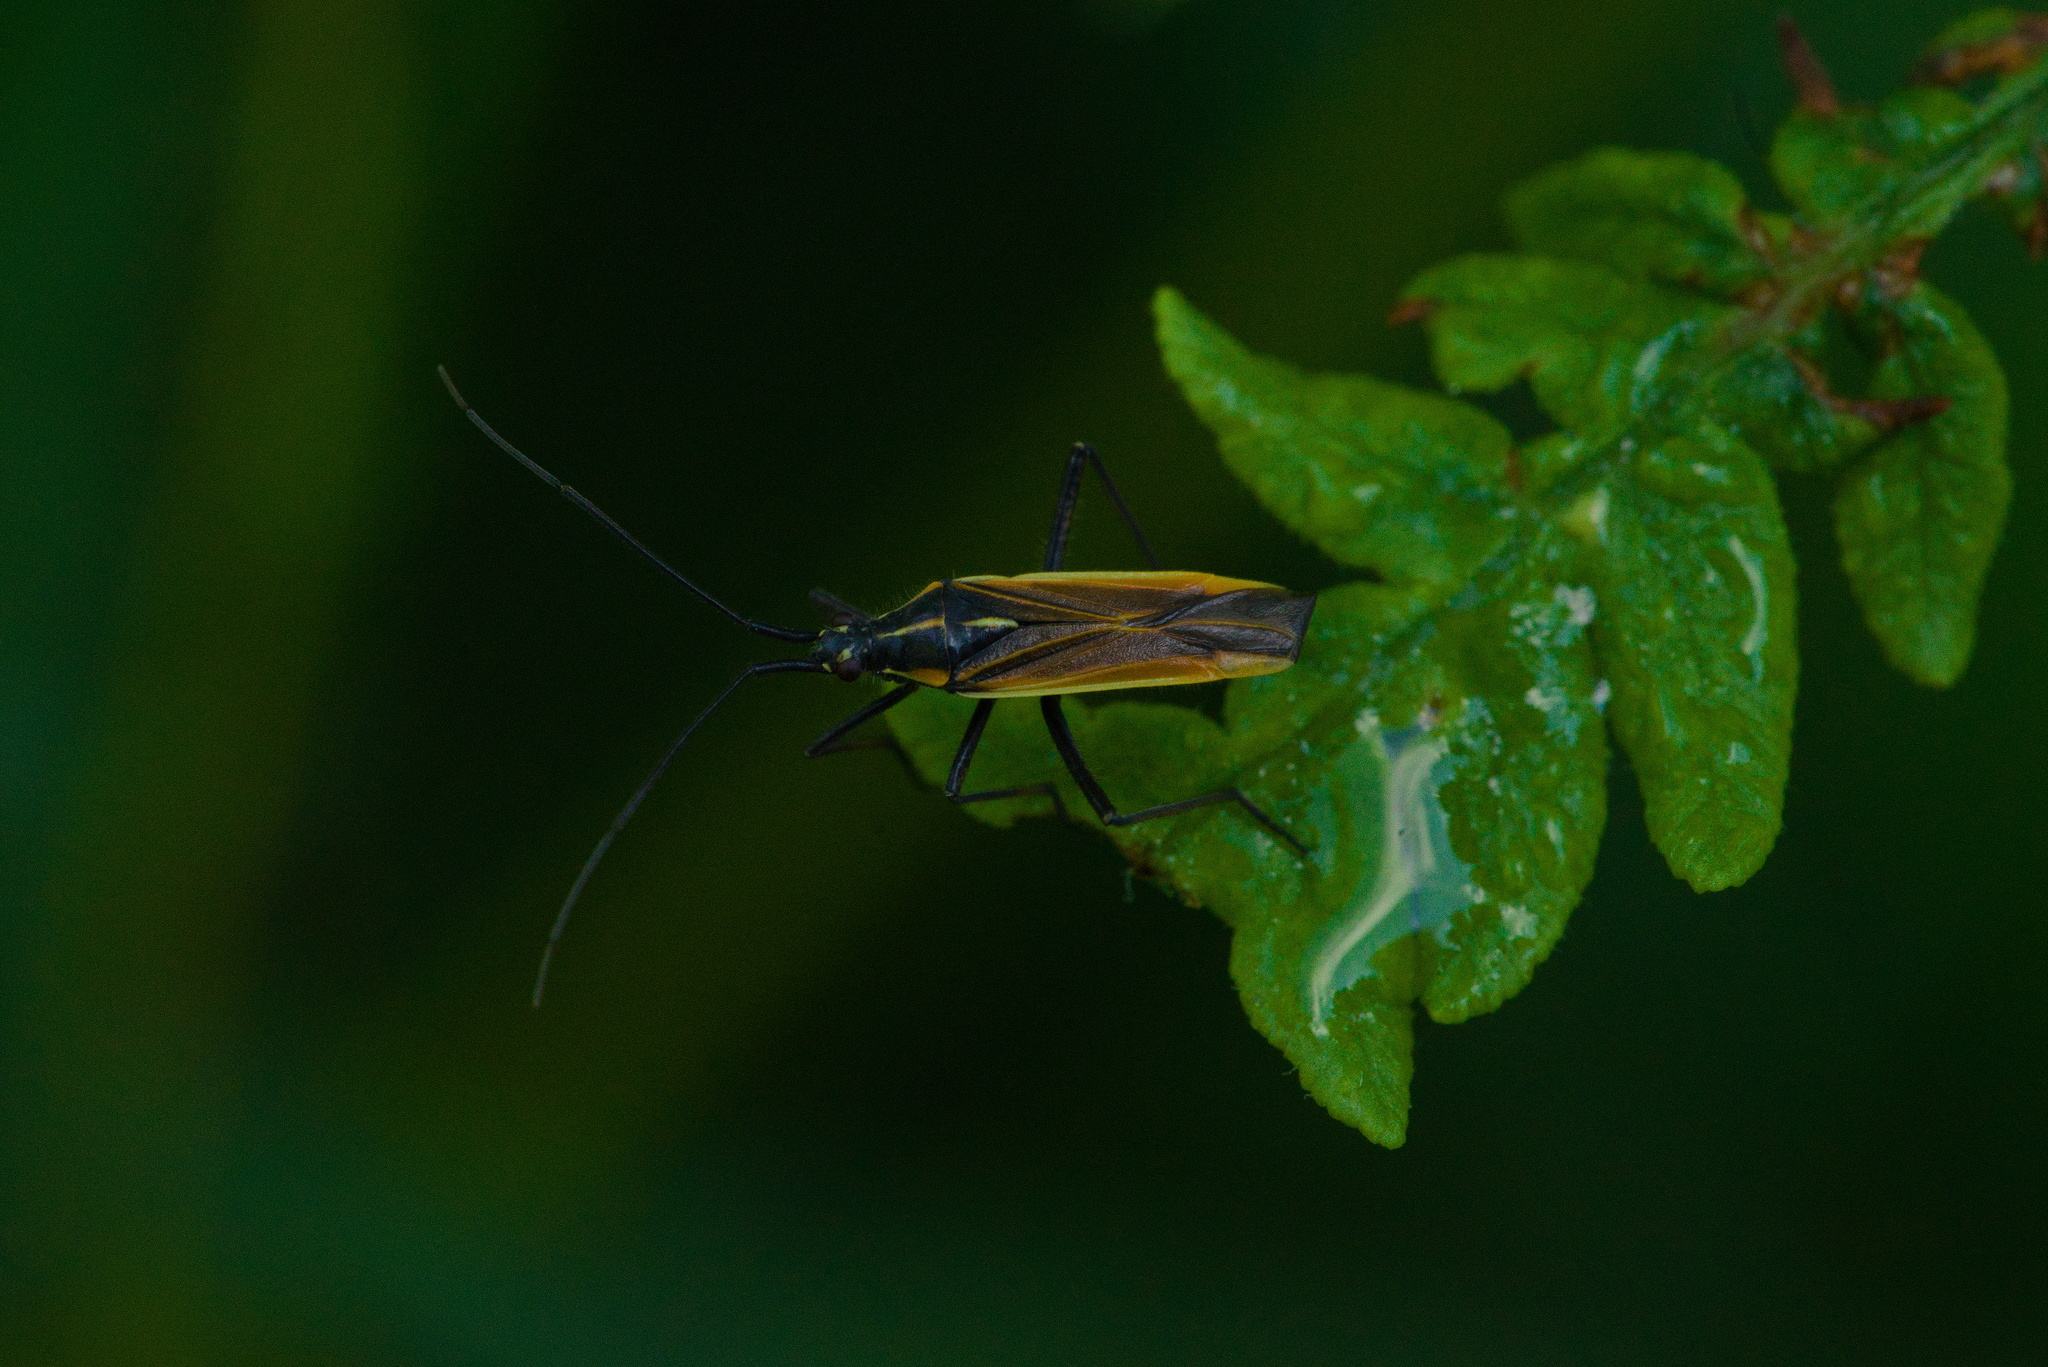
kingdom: Animalia
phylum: Arthropoda
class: Insecta
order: Hemiptera
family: Miridae
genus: Leptopterna
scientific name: Leptopterna dolabrata
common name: Meadow plant bug
